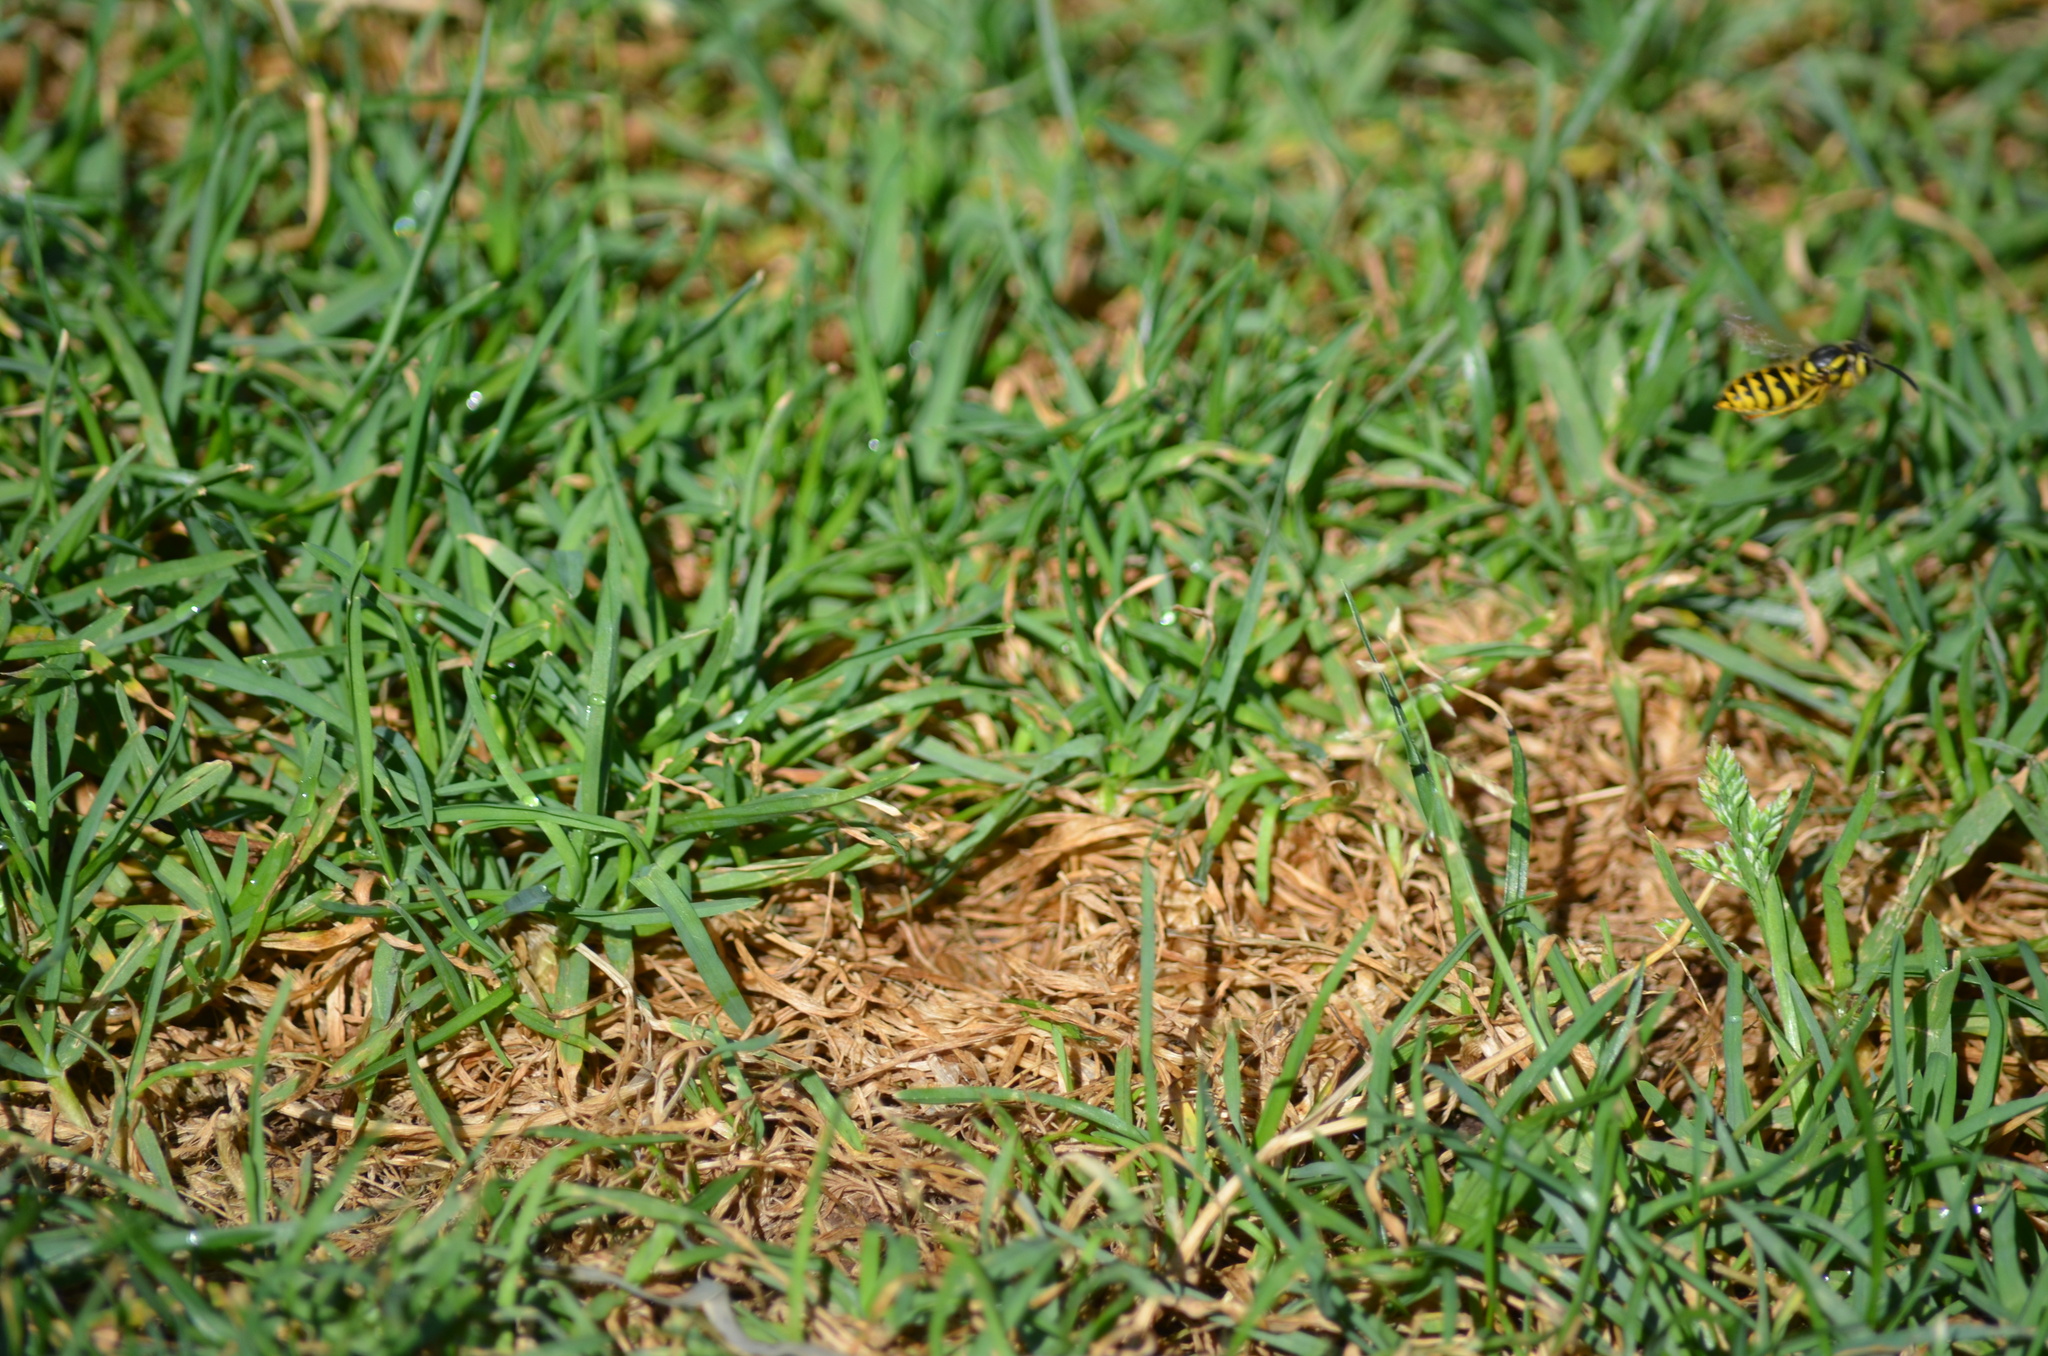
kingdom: Animalia
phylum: Arthropoda
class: Insecta
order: Hymenoptera
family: Vespidae
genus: Vespula
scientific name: Vespula pensylvanica
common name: Western yellowjacket
